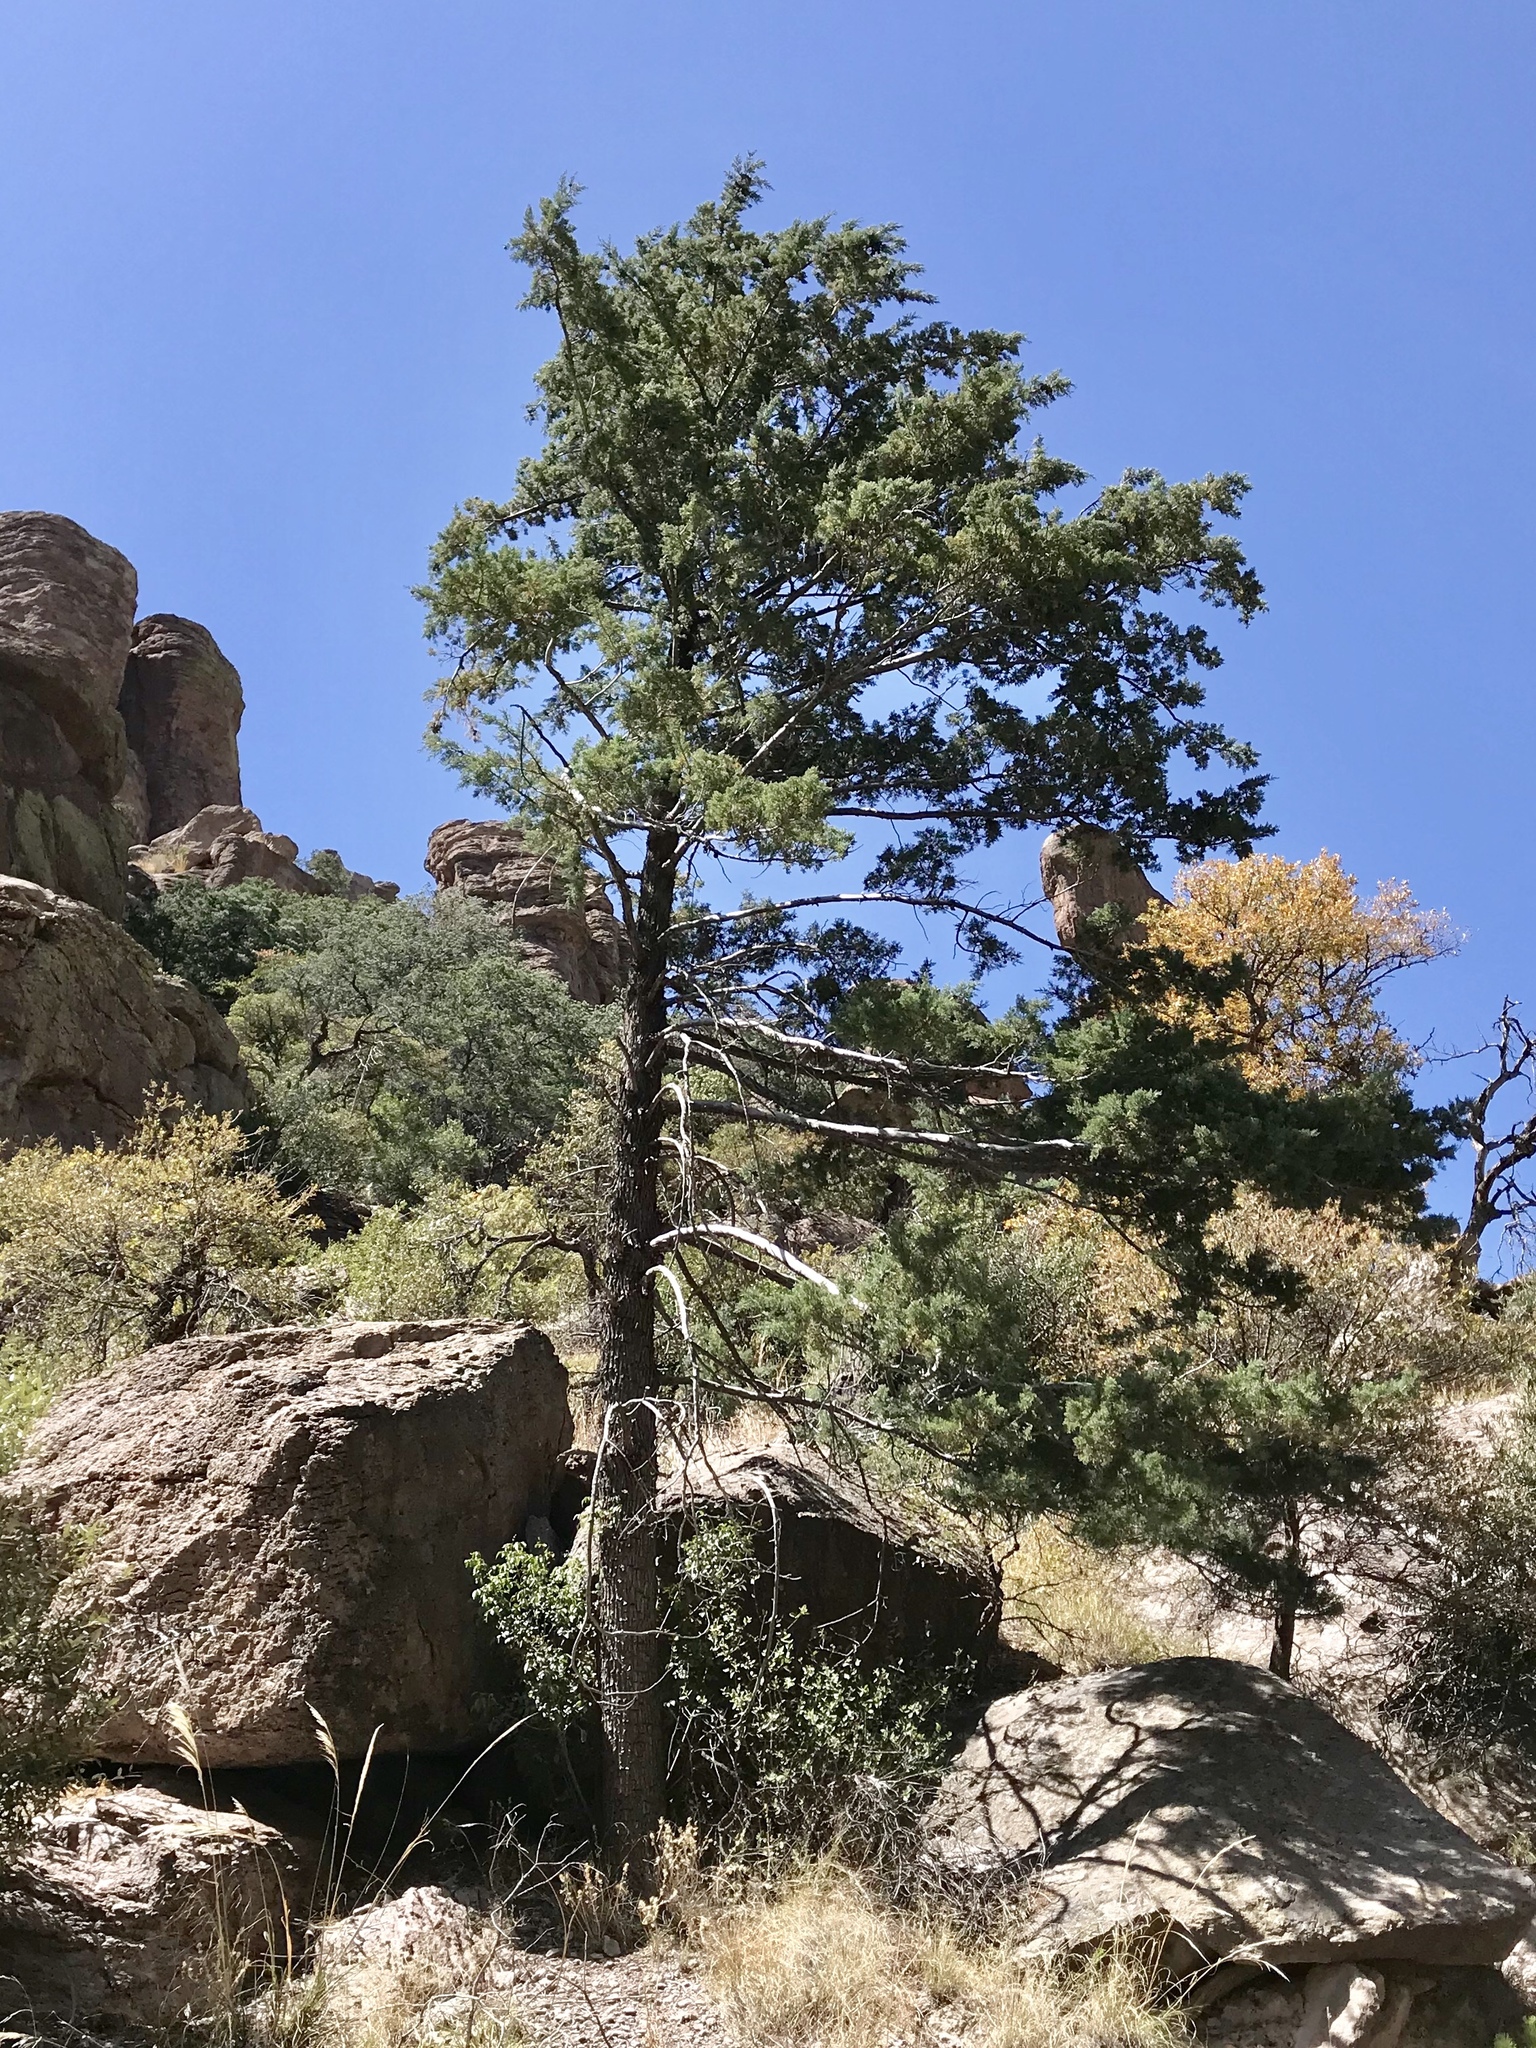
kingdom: Plantae
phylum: Tracheophyta
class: Pinopsida
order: Pinales
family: Cupressaceae
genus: Cupressus
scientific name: Cupressus arizonica
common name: Arizona cypress
